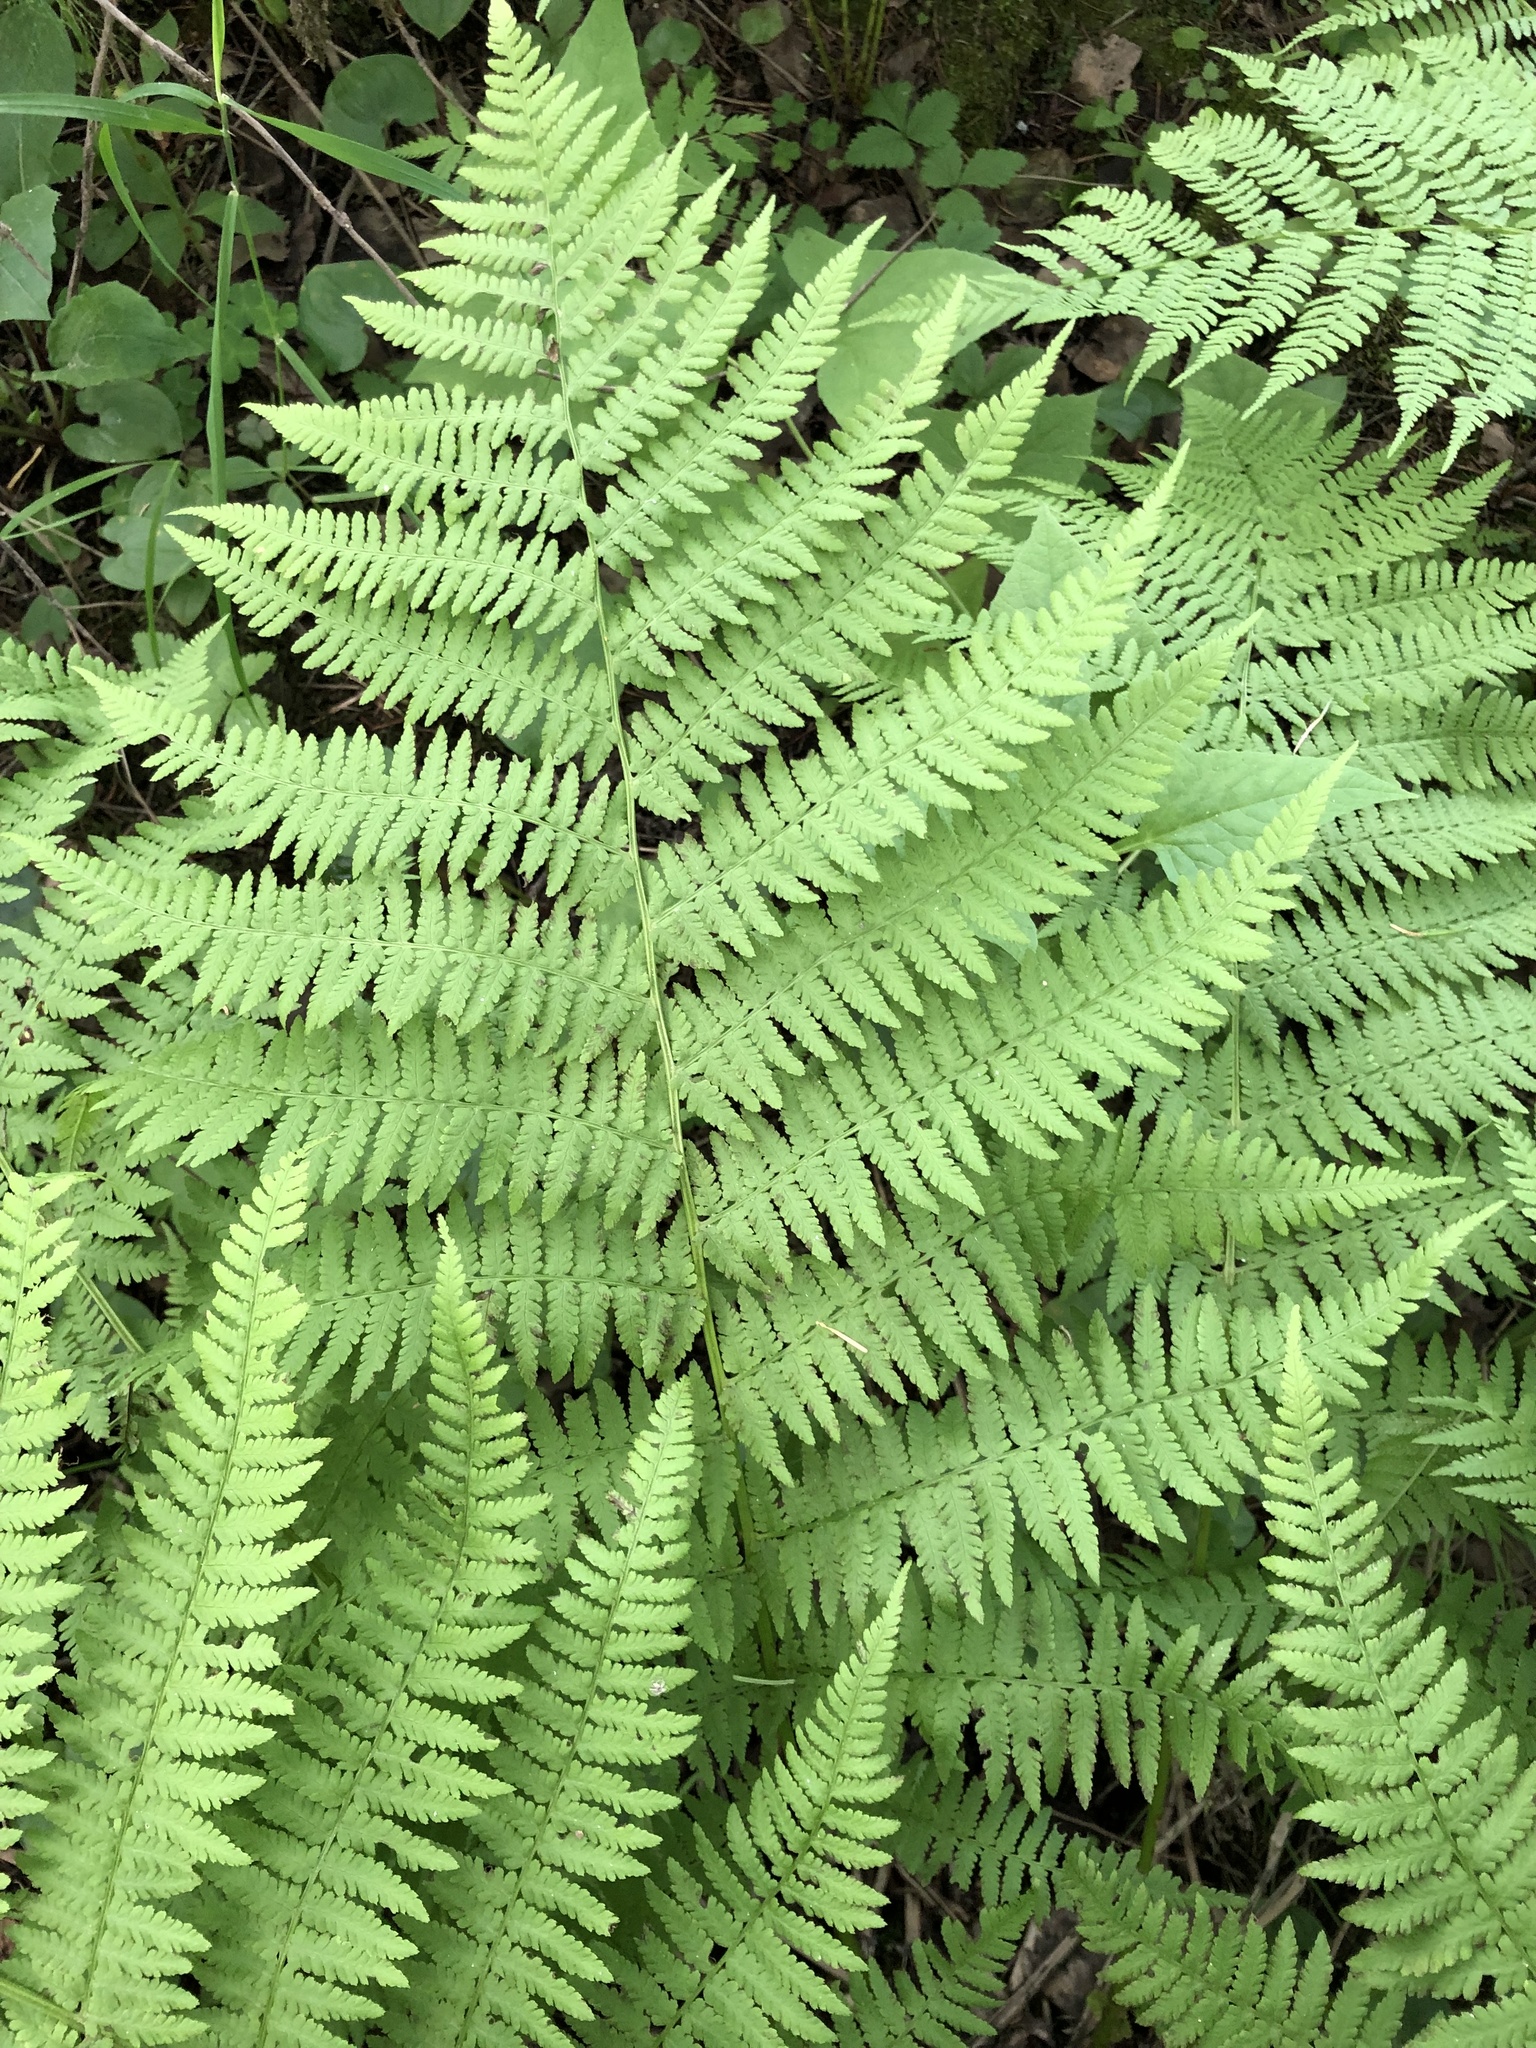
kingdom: Plantae
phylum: Tracheophyta
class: Polypodiopsida
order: Polypodiales
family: Athyriaceae
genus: Athyrium
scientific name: Athyrium filix-femina
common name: Lady fern
